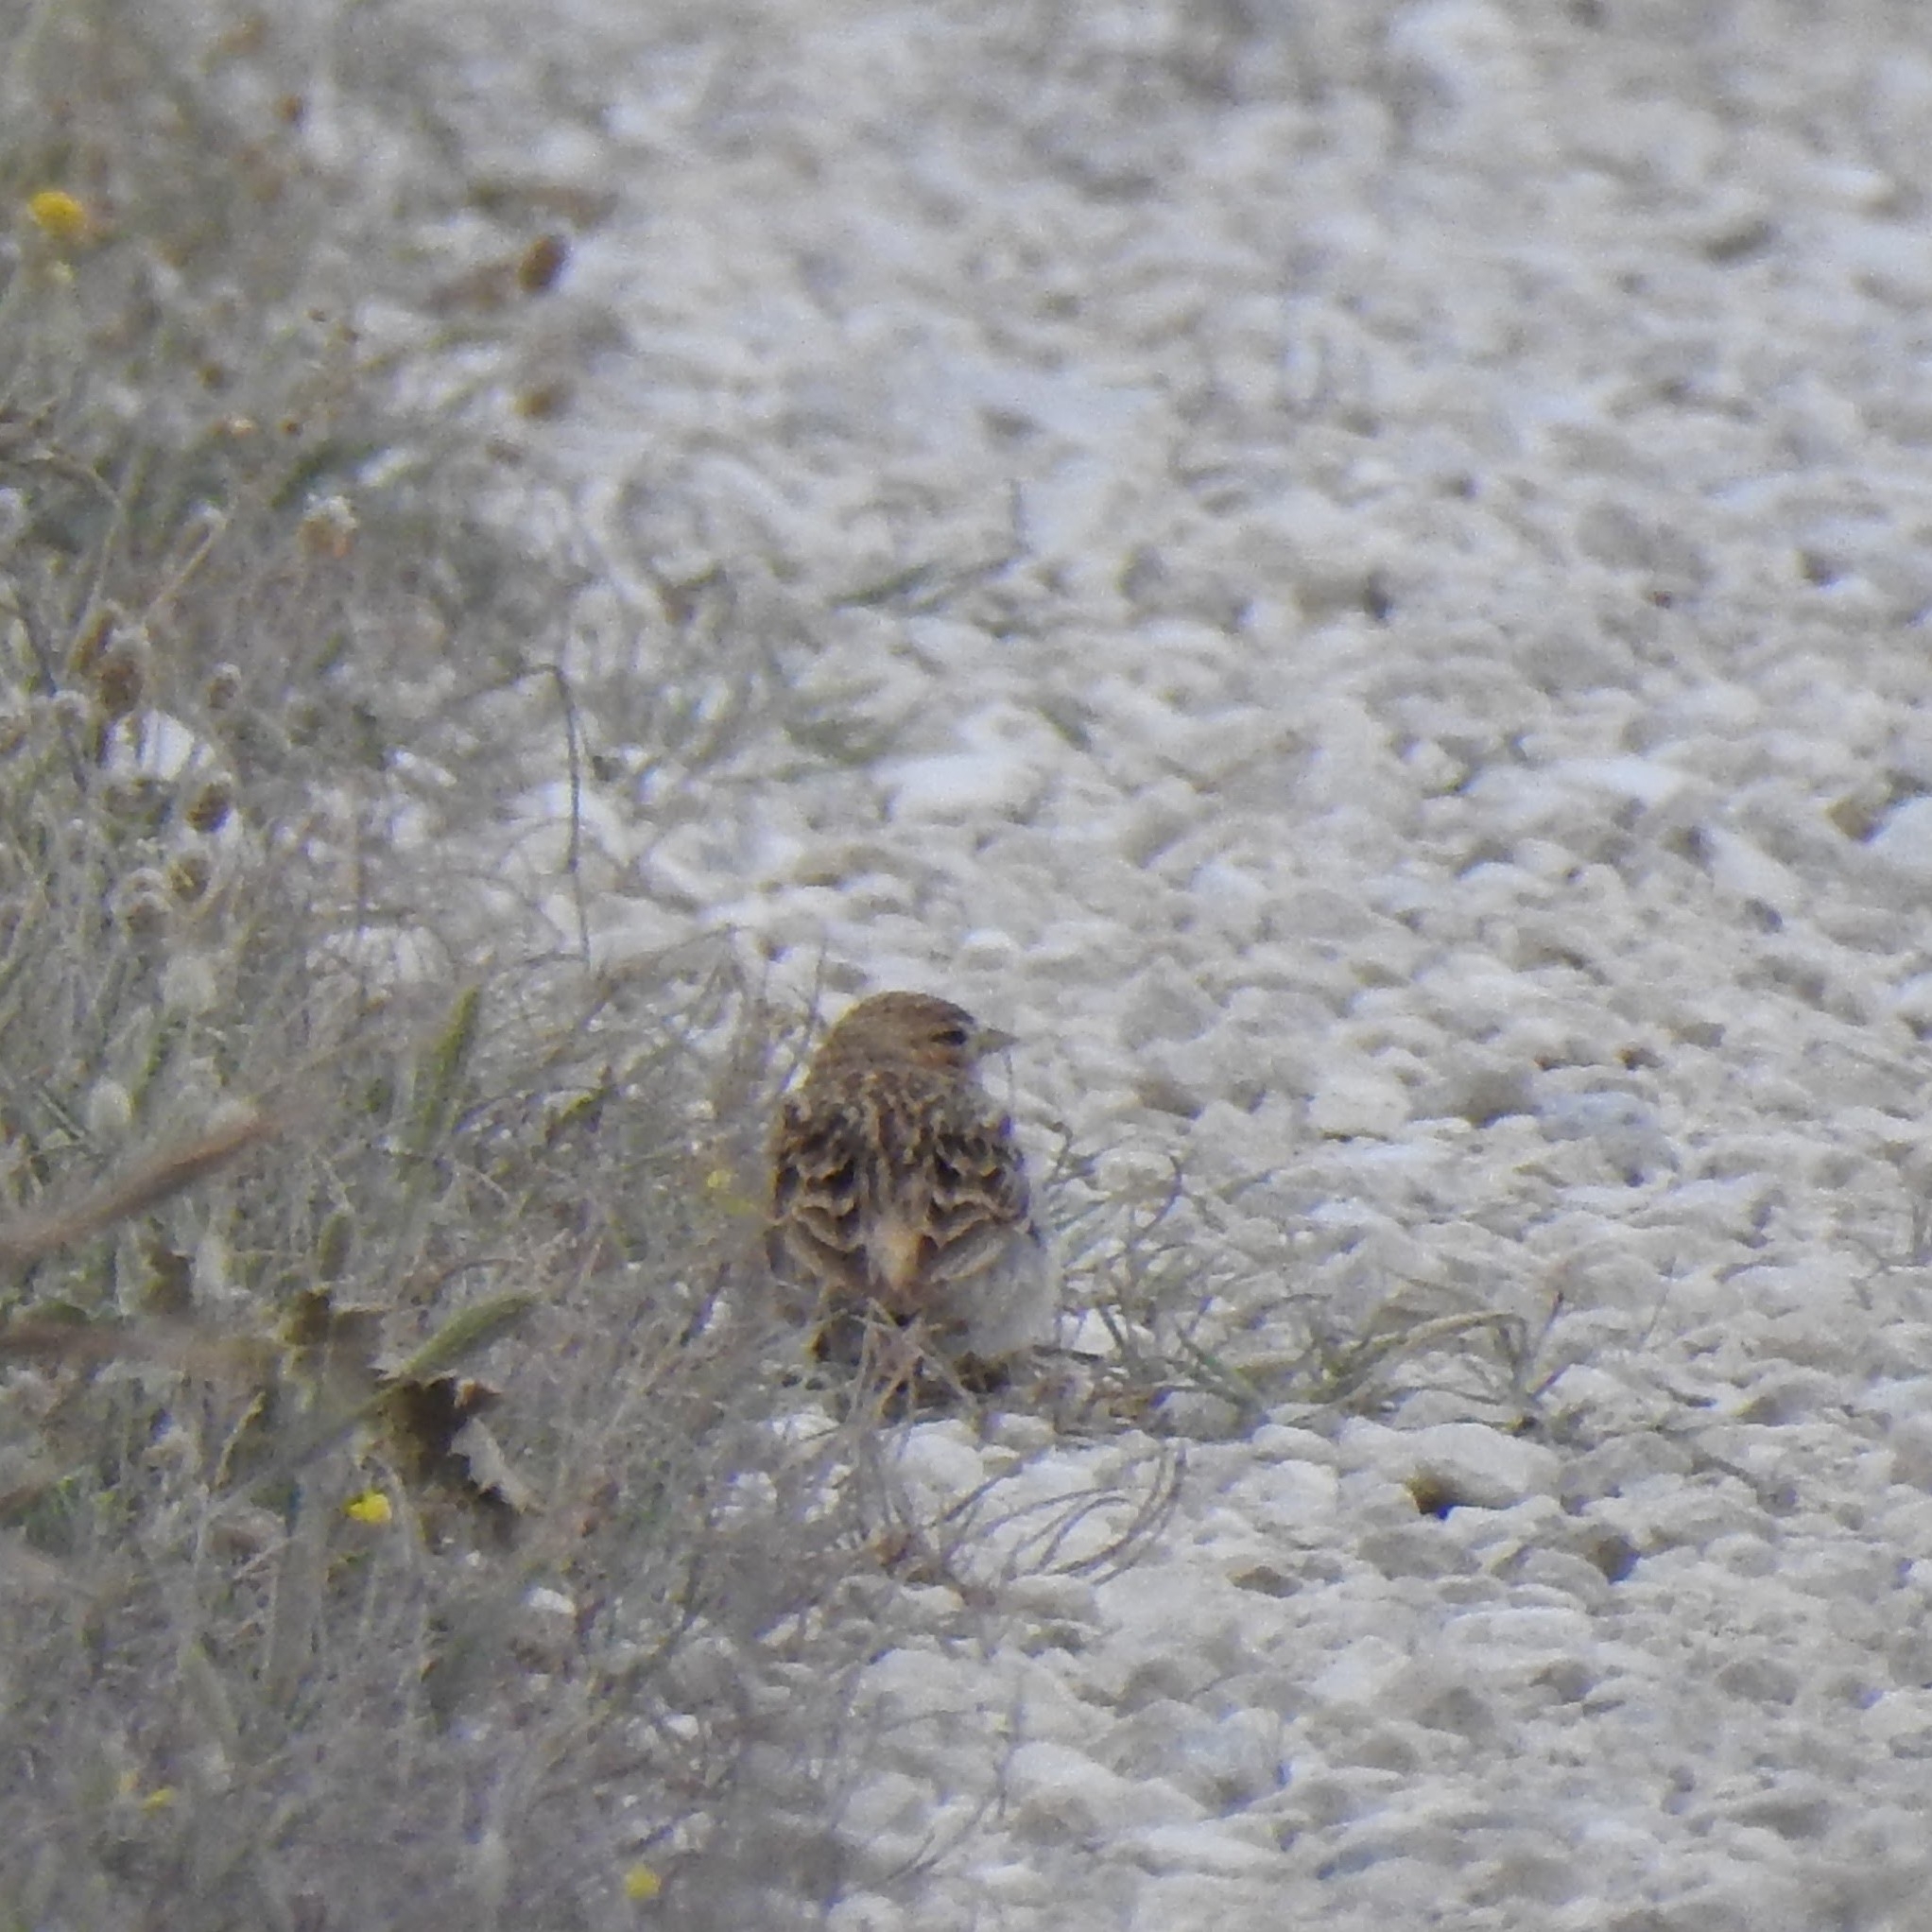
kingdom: Animalia
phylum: Chordata
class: Aves
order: Passeriformes
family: Alaudidae
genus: Calandrella
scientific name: Calandrella brachydactyla
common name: Greater short-toed lark
